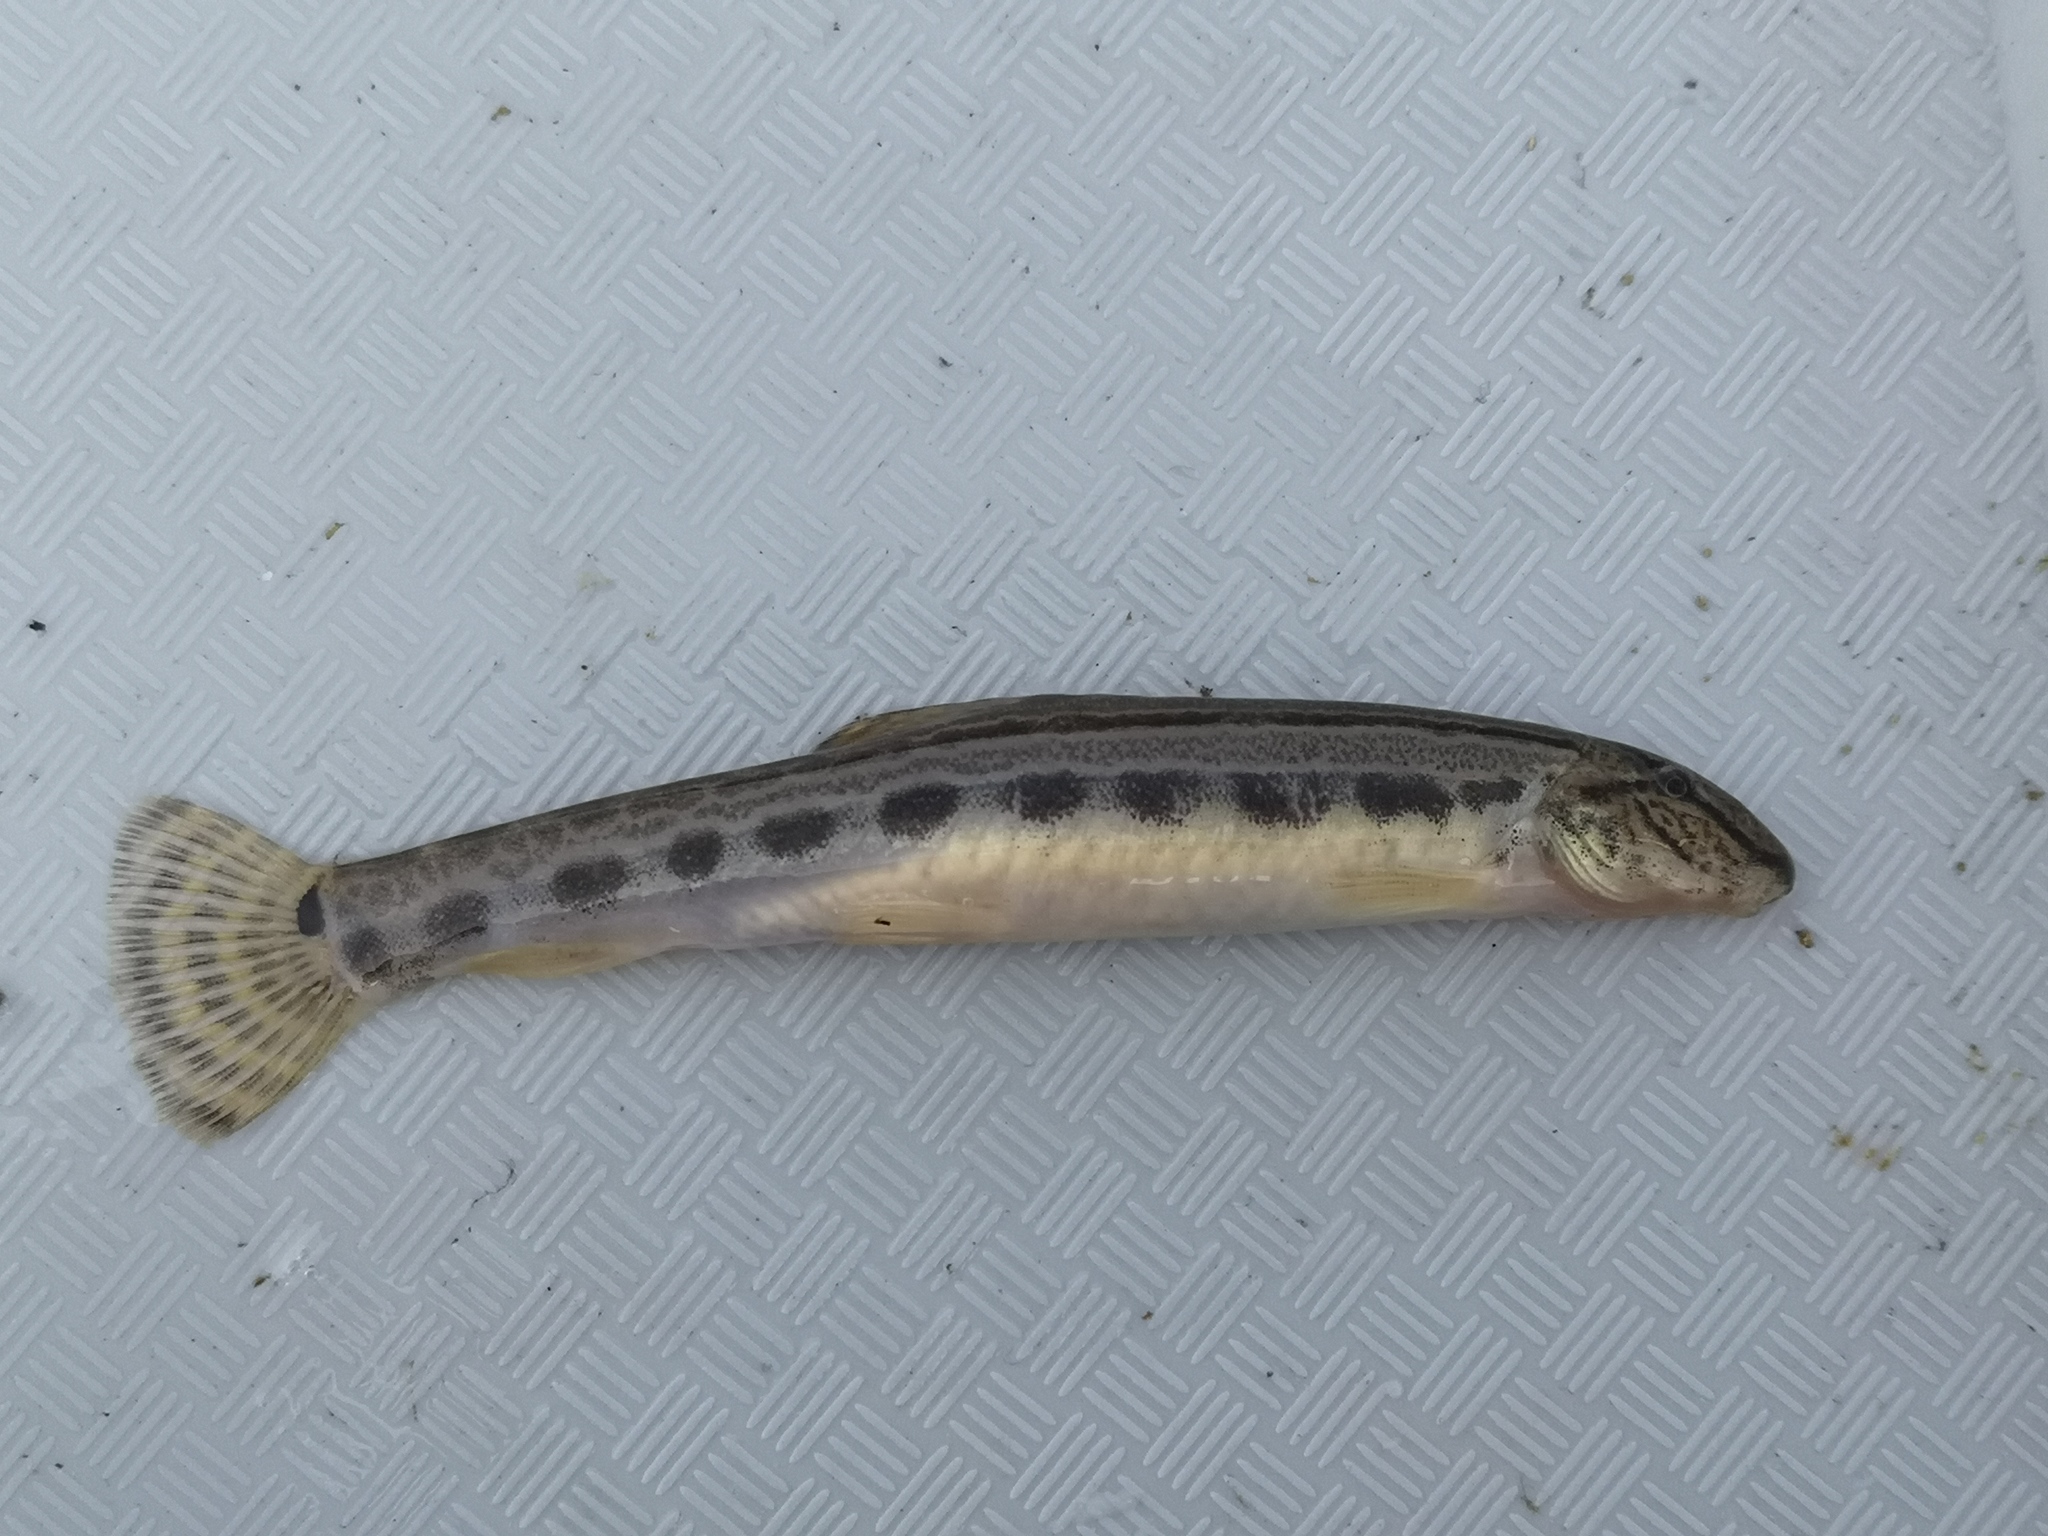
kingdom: Animalia
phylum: Chordata
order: Cypriniformes
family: Cobitidae
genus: Cobitis
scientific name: Cobitis elongatoides
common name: Danubian spined loach
